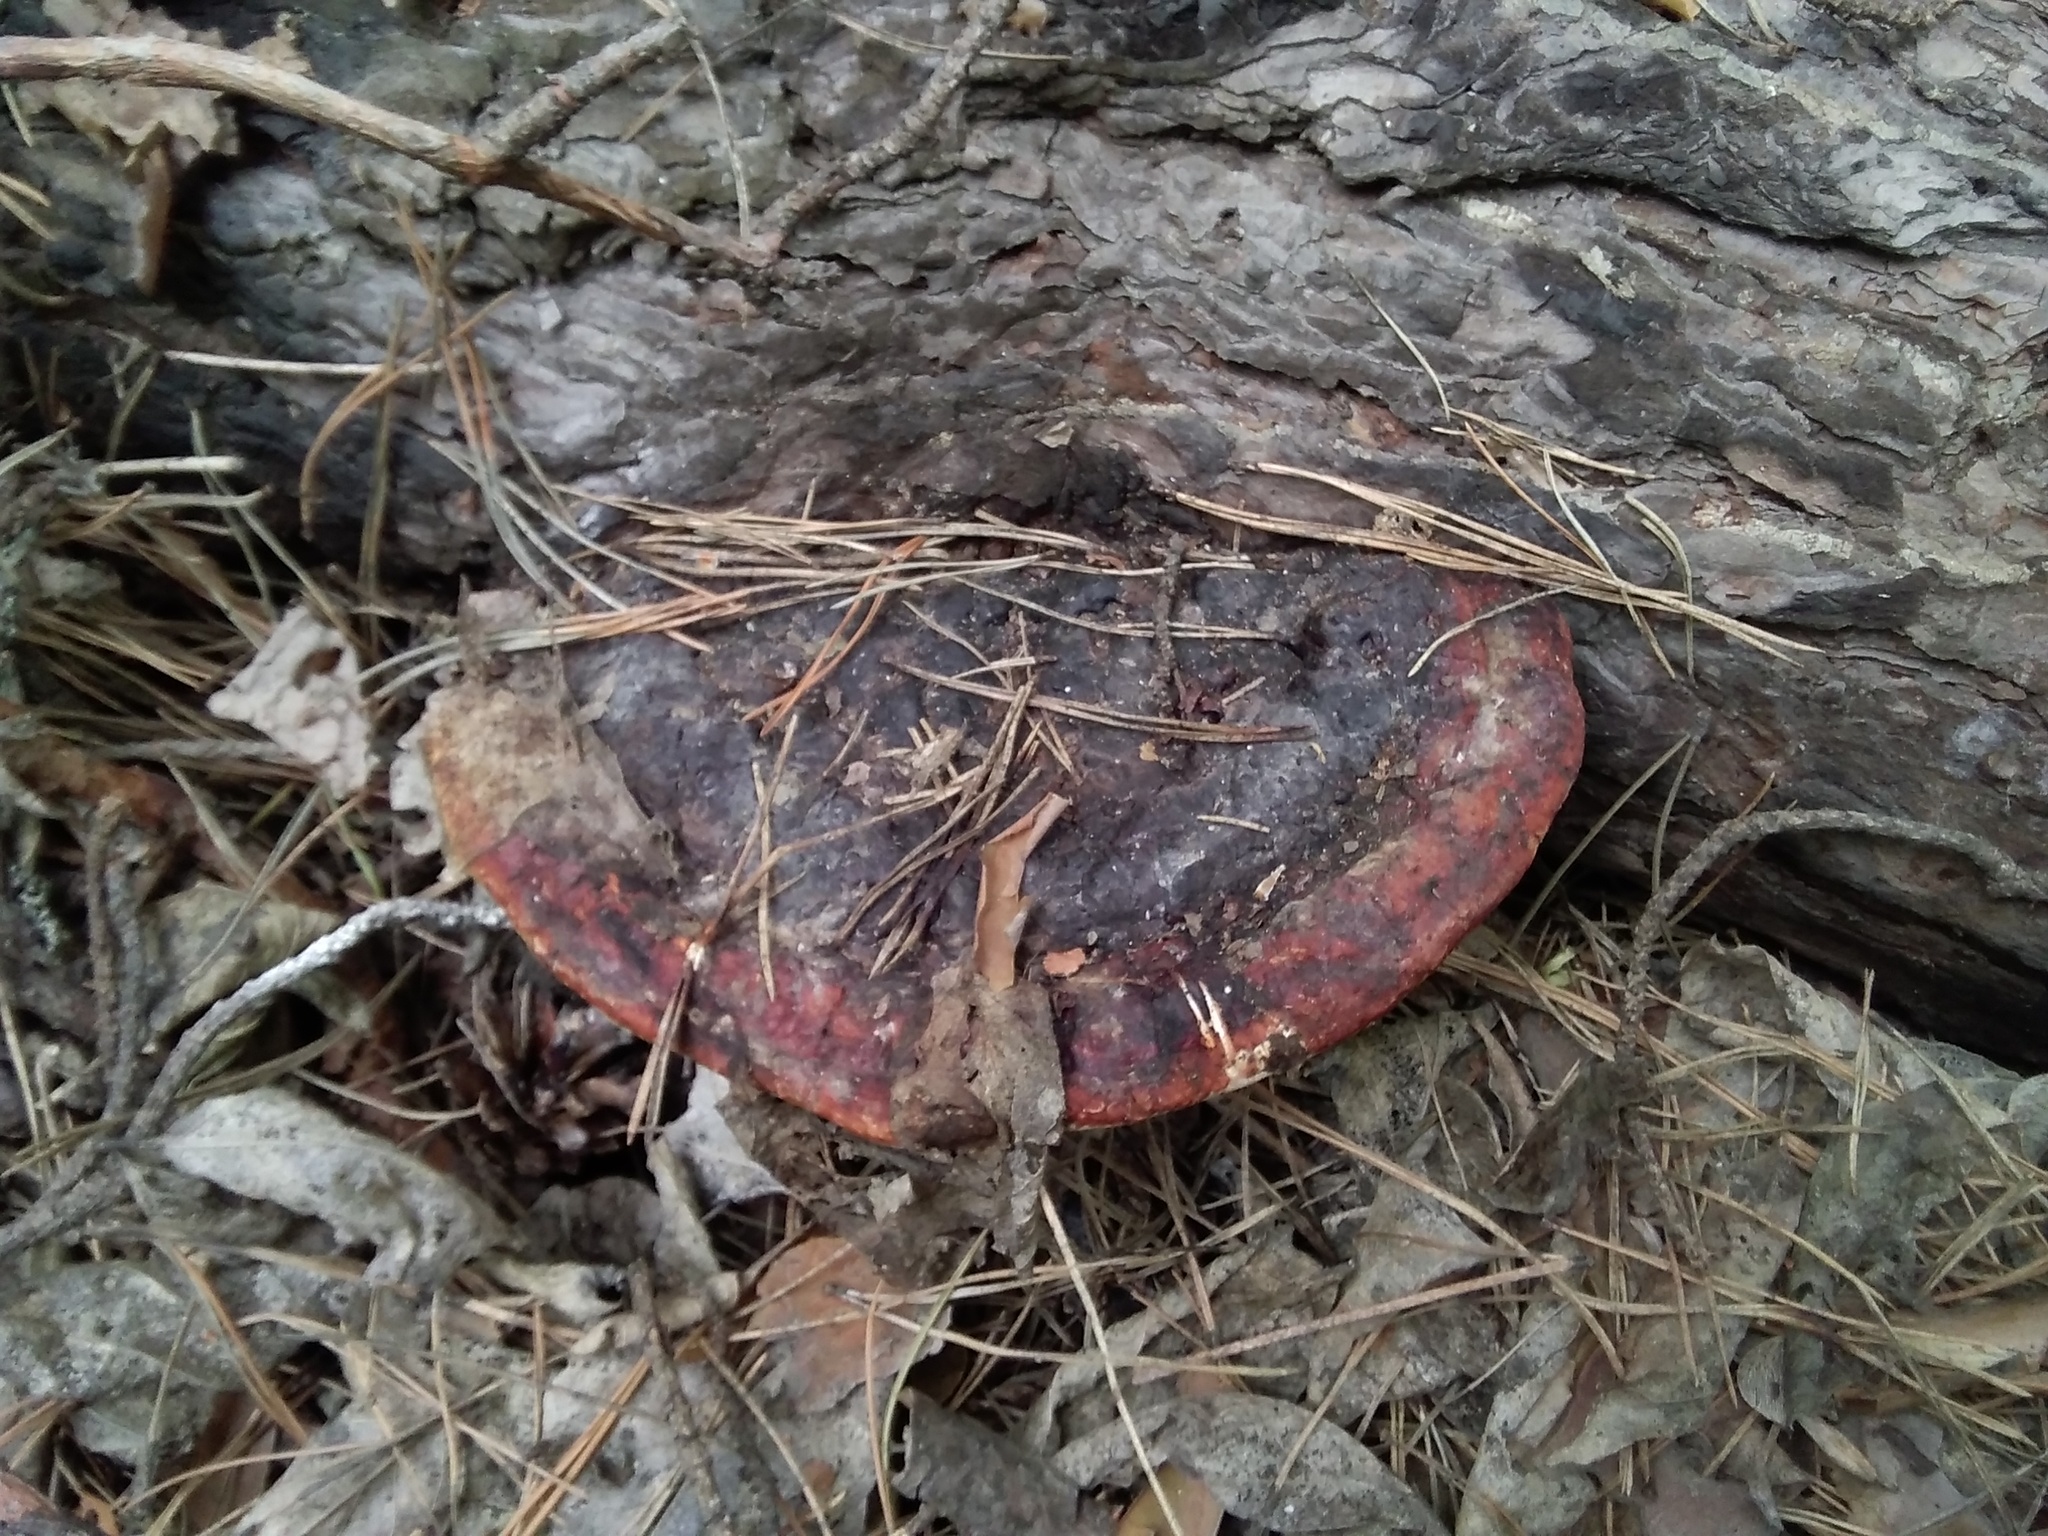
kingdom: Fungi
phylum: Basidiomycota
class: Agaricomycetes
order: Polyporales
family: Fomitopsidaceae
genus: Fomitopsis
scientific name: Fomitopsis pinicola
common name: Red-belted bracket
